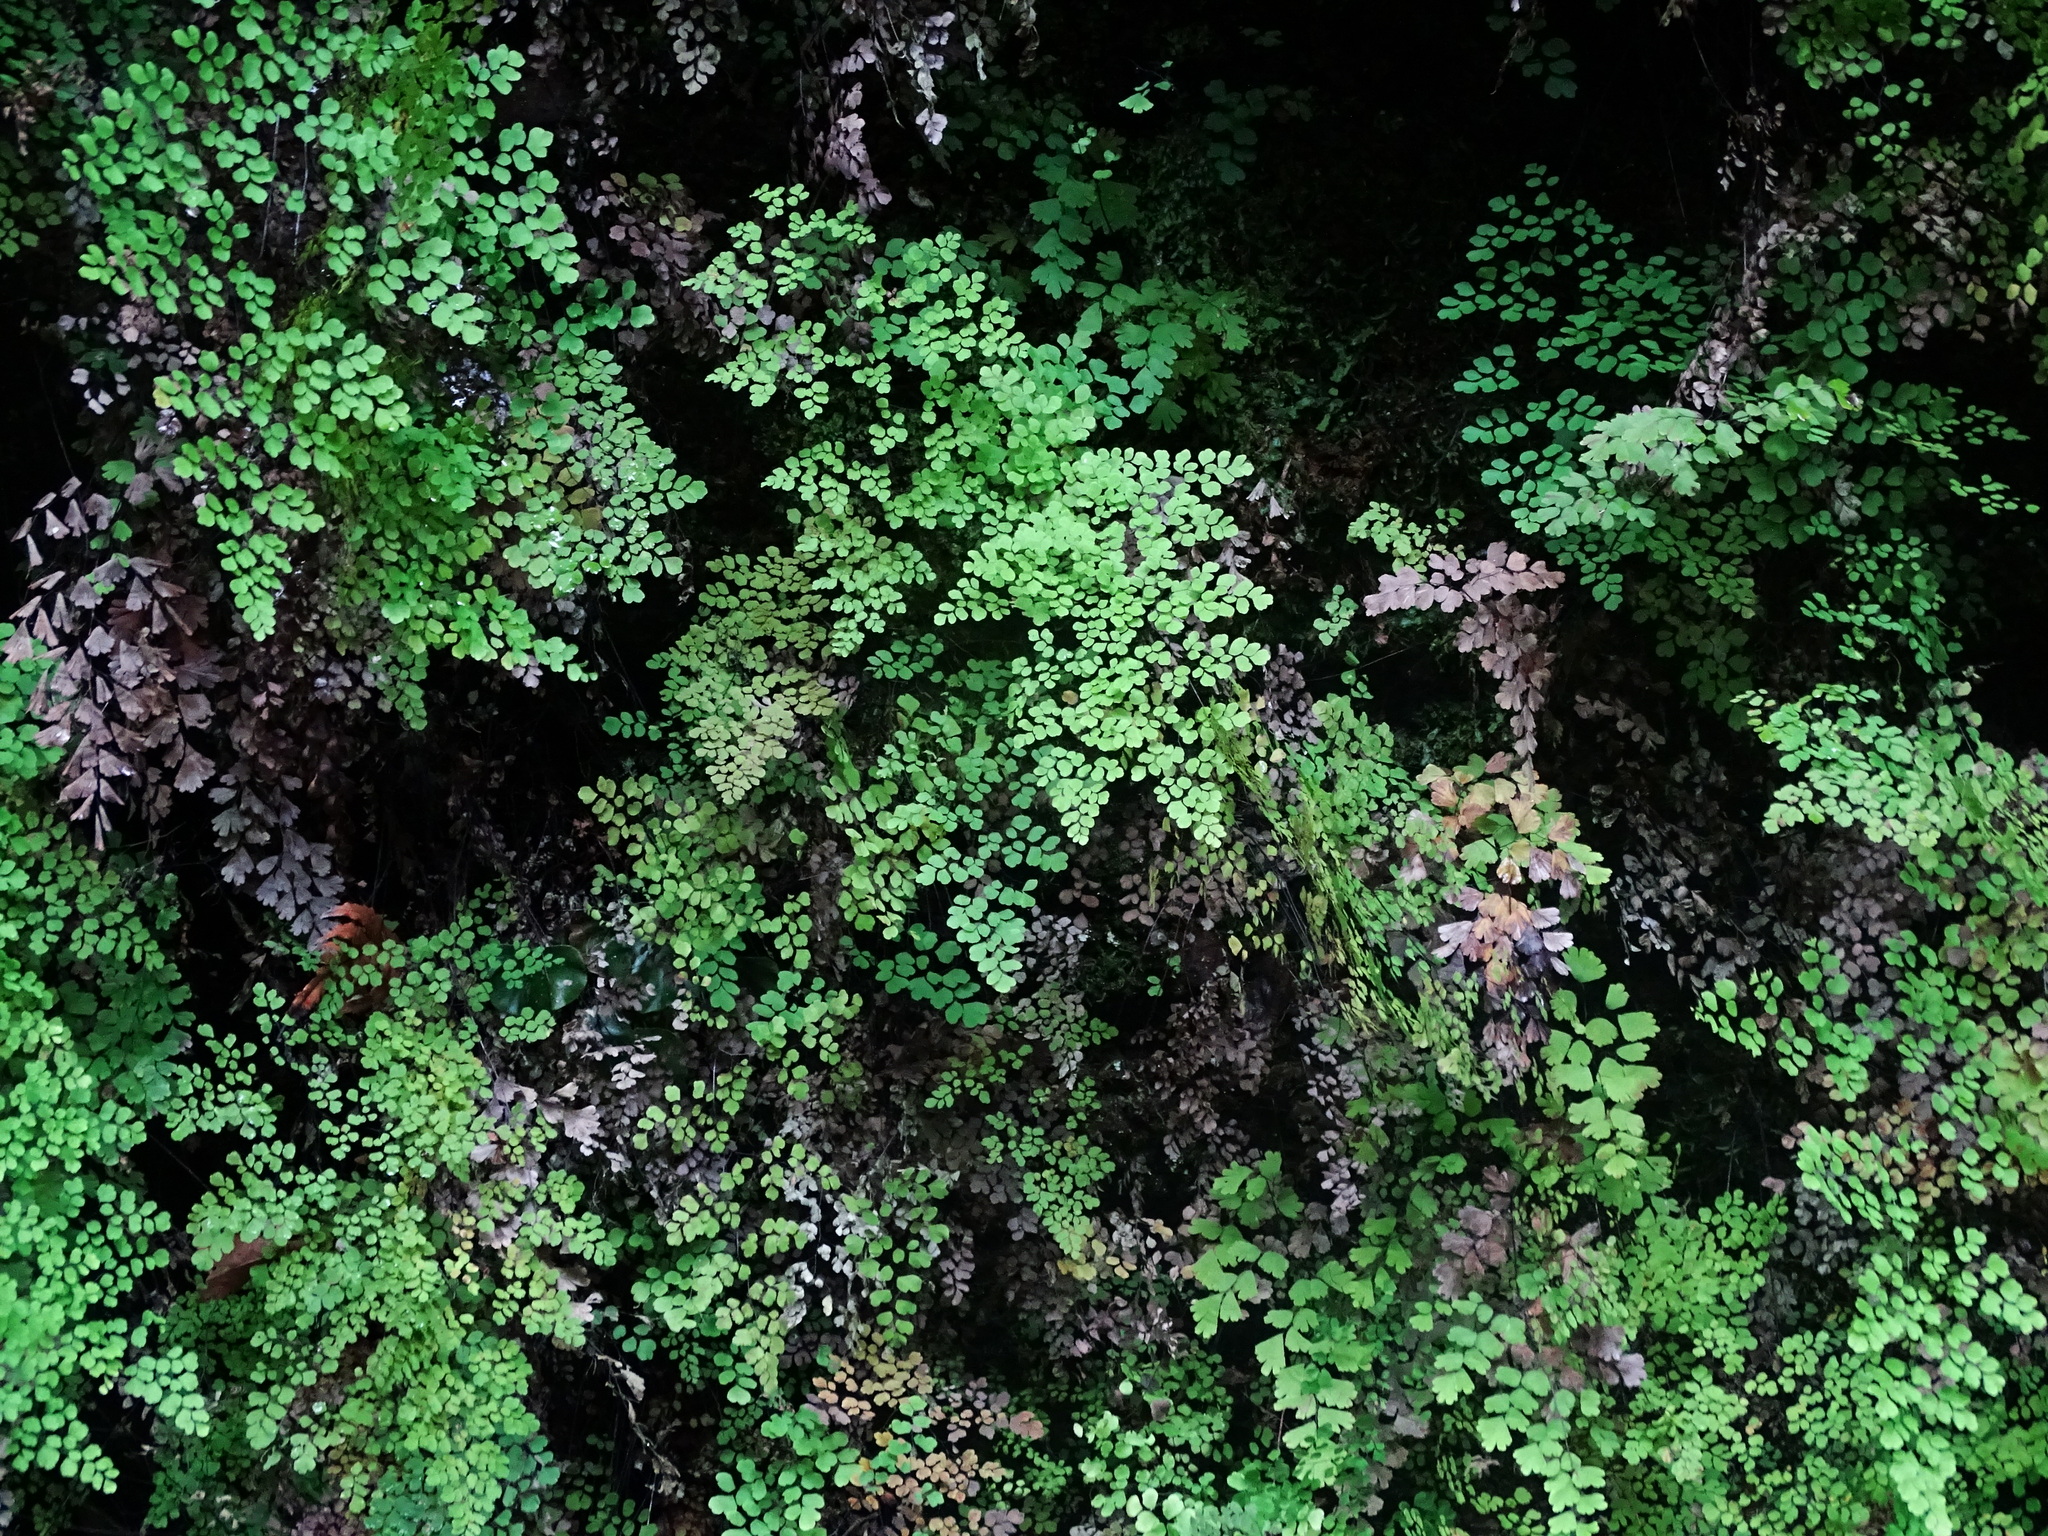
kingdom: Plantae
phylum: Tracheophyta
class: Polypodiopsida
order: Polypodiales
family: Pteridaceae
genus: Adiantum
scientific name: Adiantum raddianum
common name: Delta maidenhair fern
